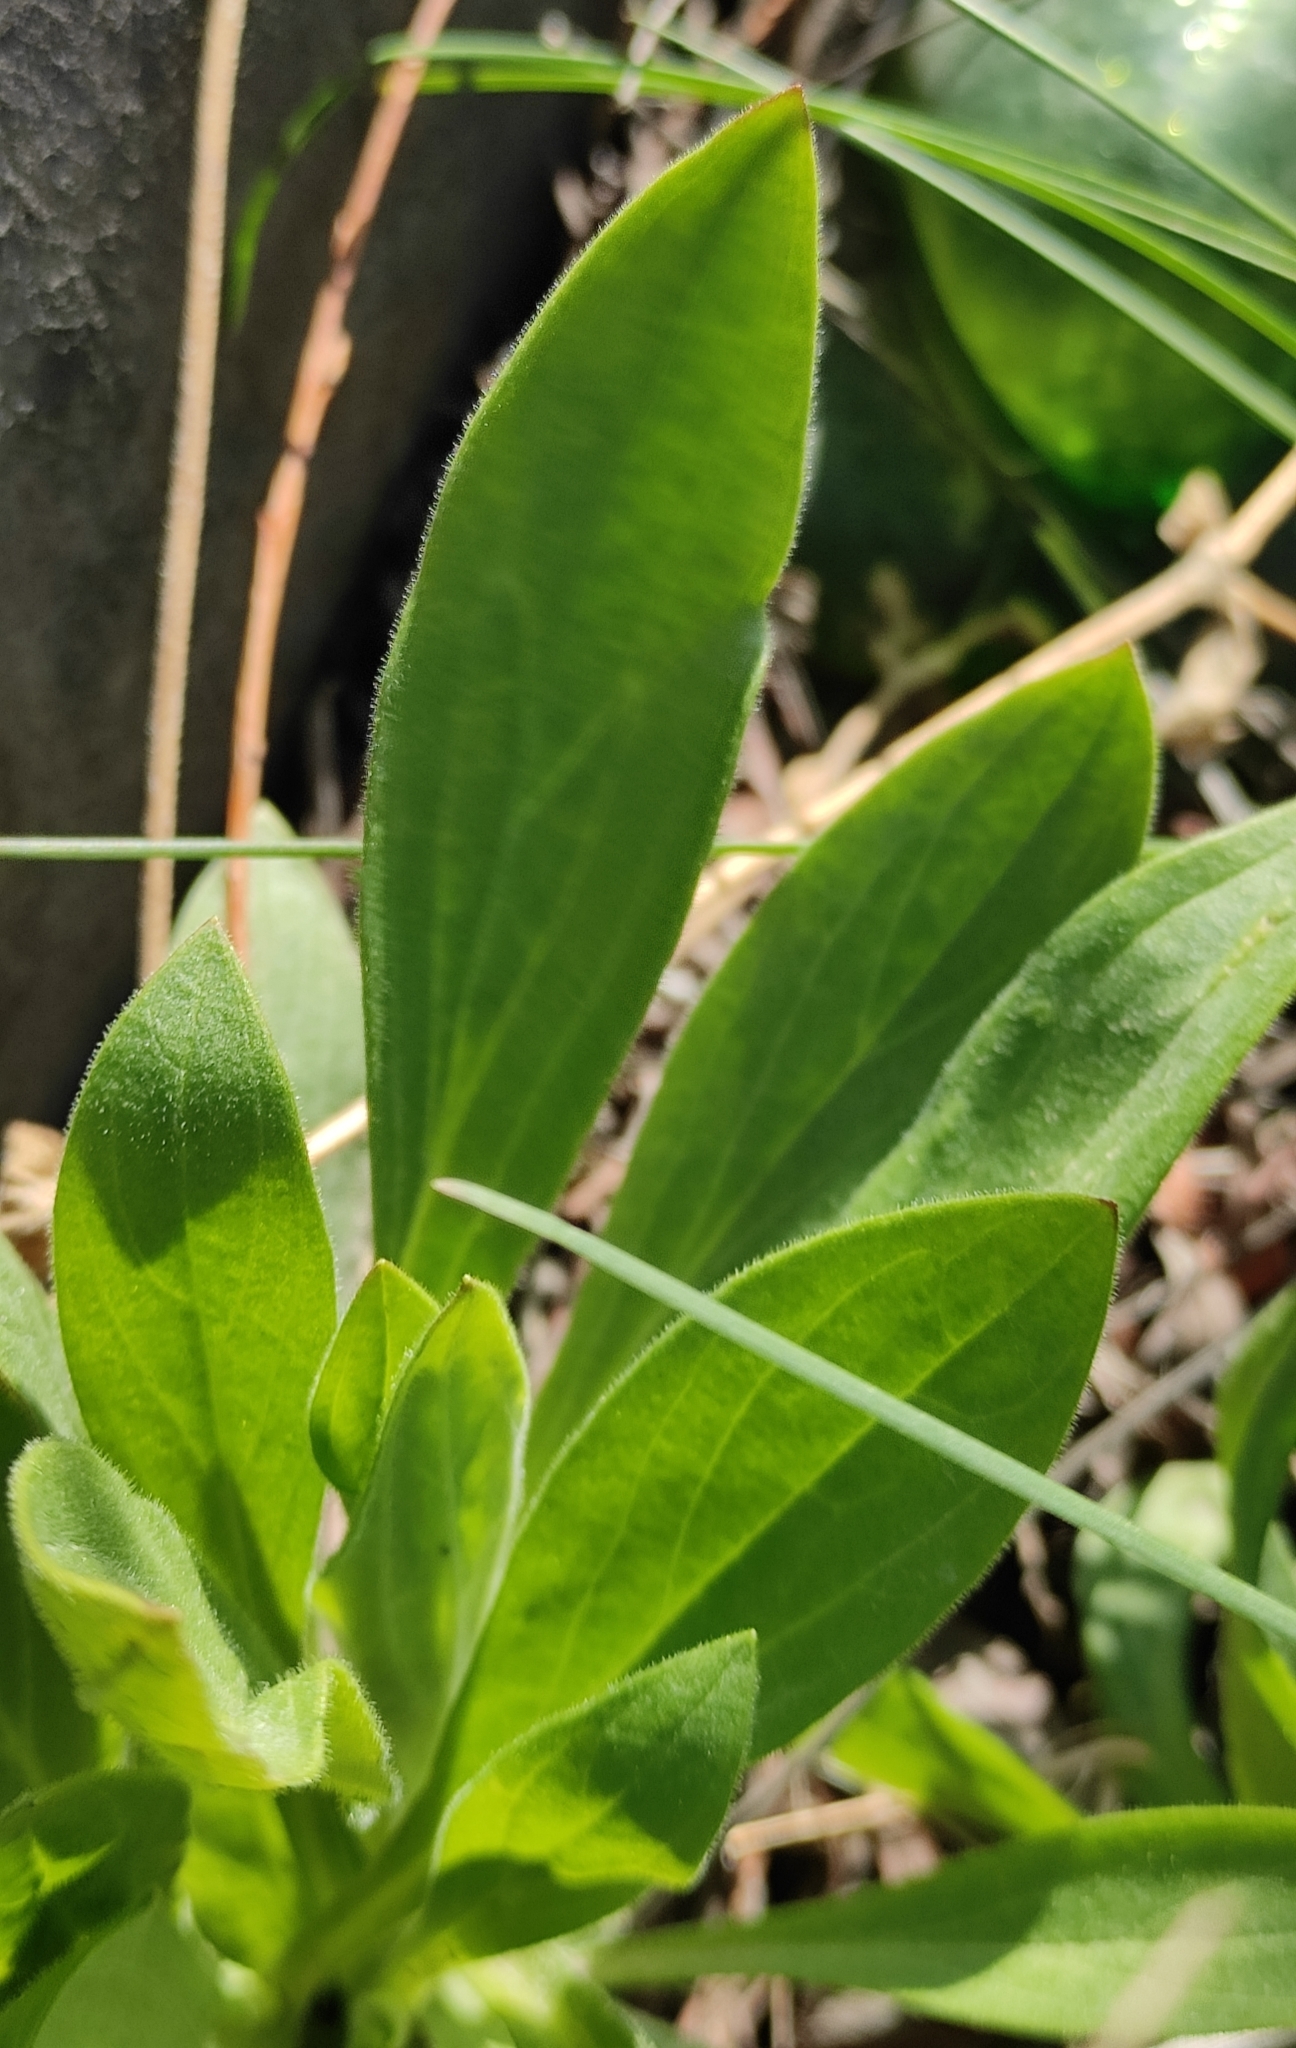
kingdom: Plantae
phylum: Tracheophyta
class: Magnoliopsida
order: Caryophyllales
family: Caryophyllaceae
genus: Silene
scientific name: Silene latifolia
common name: White campion
